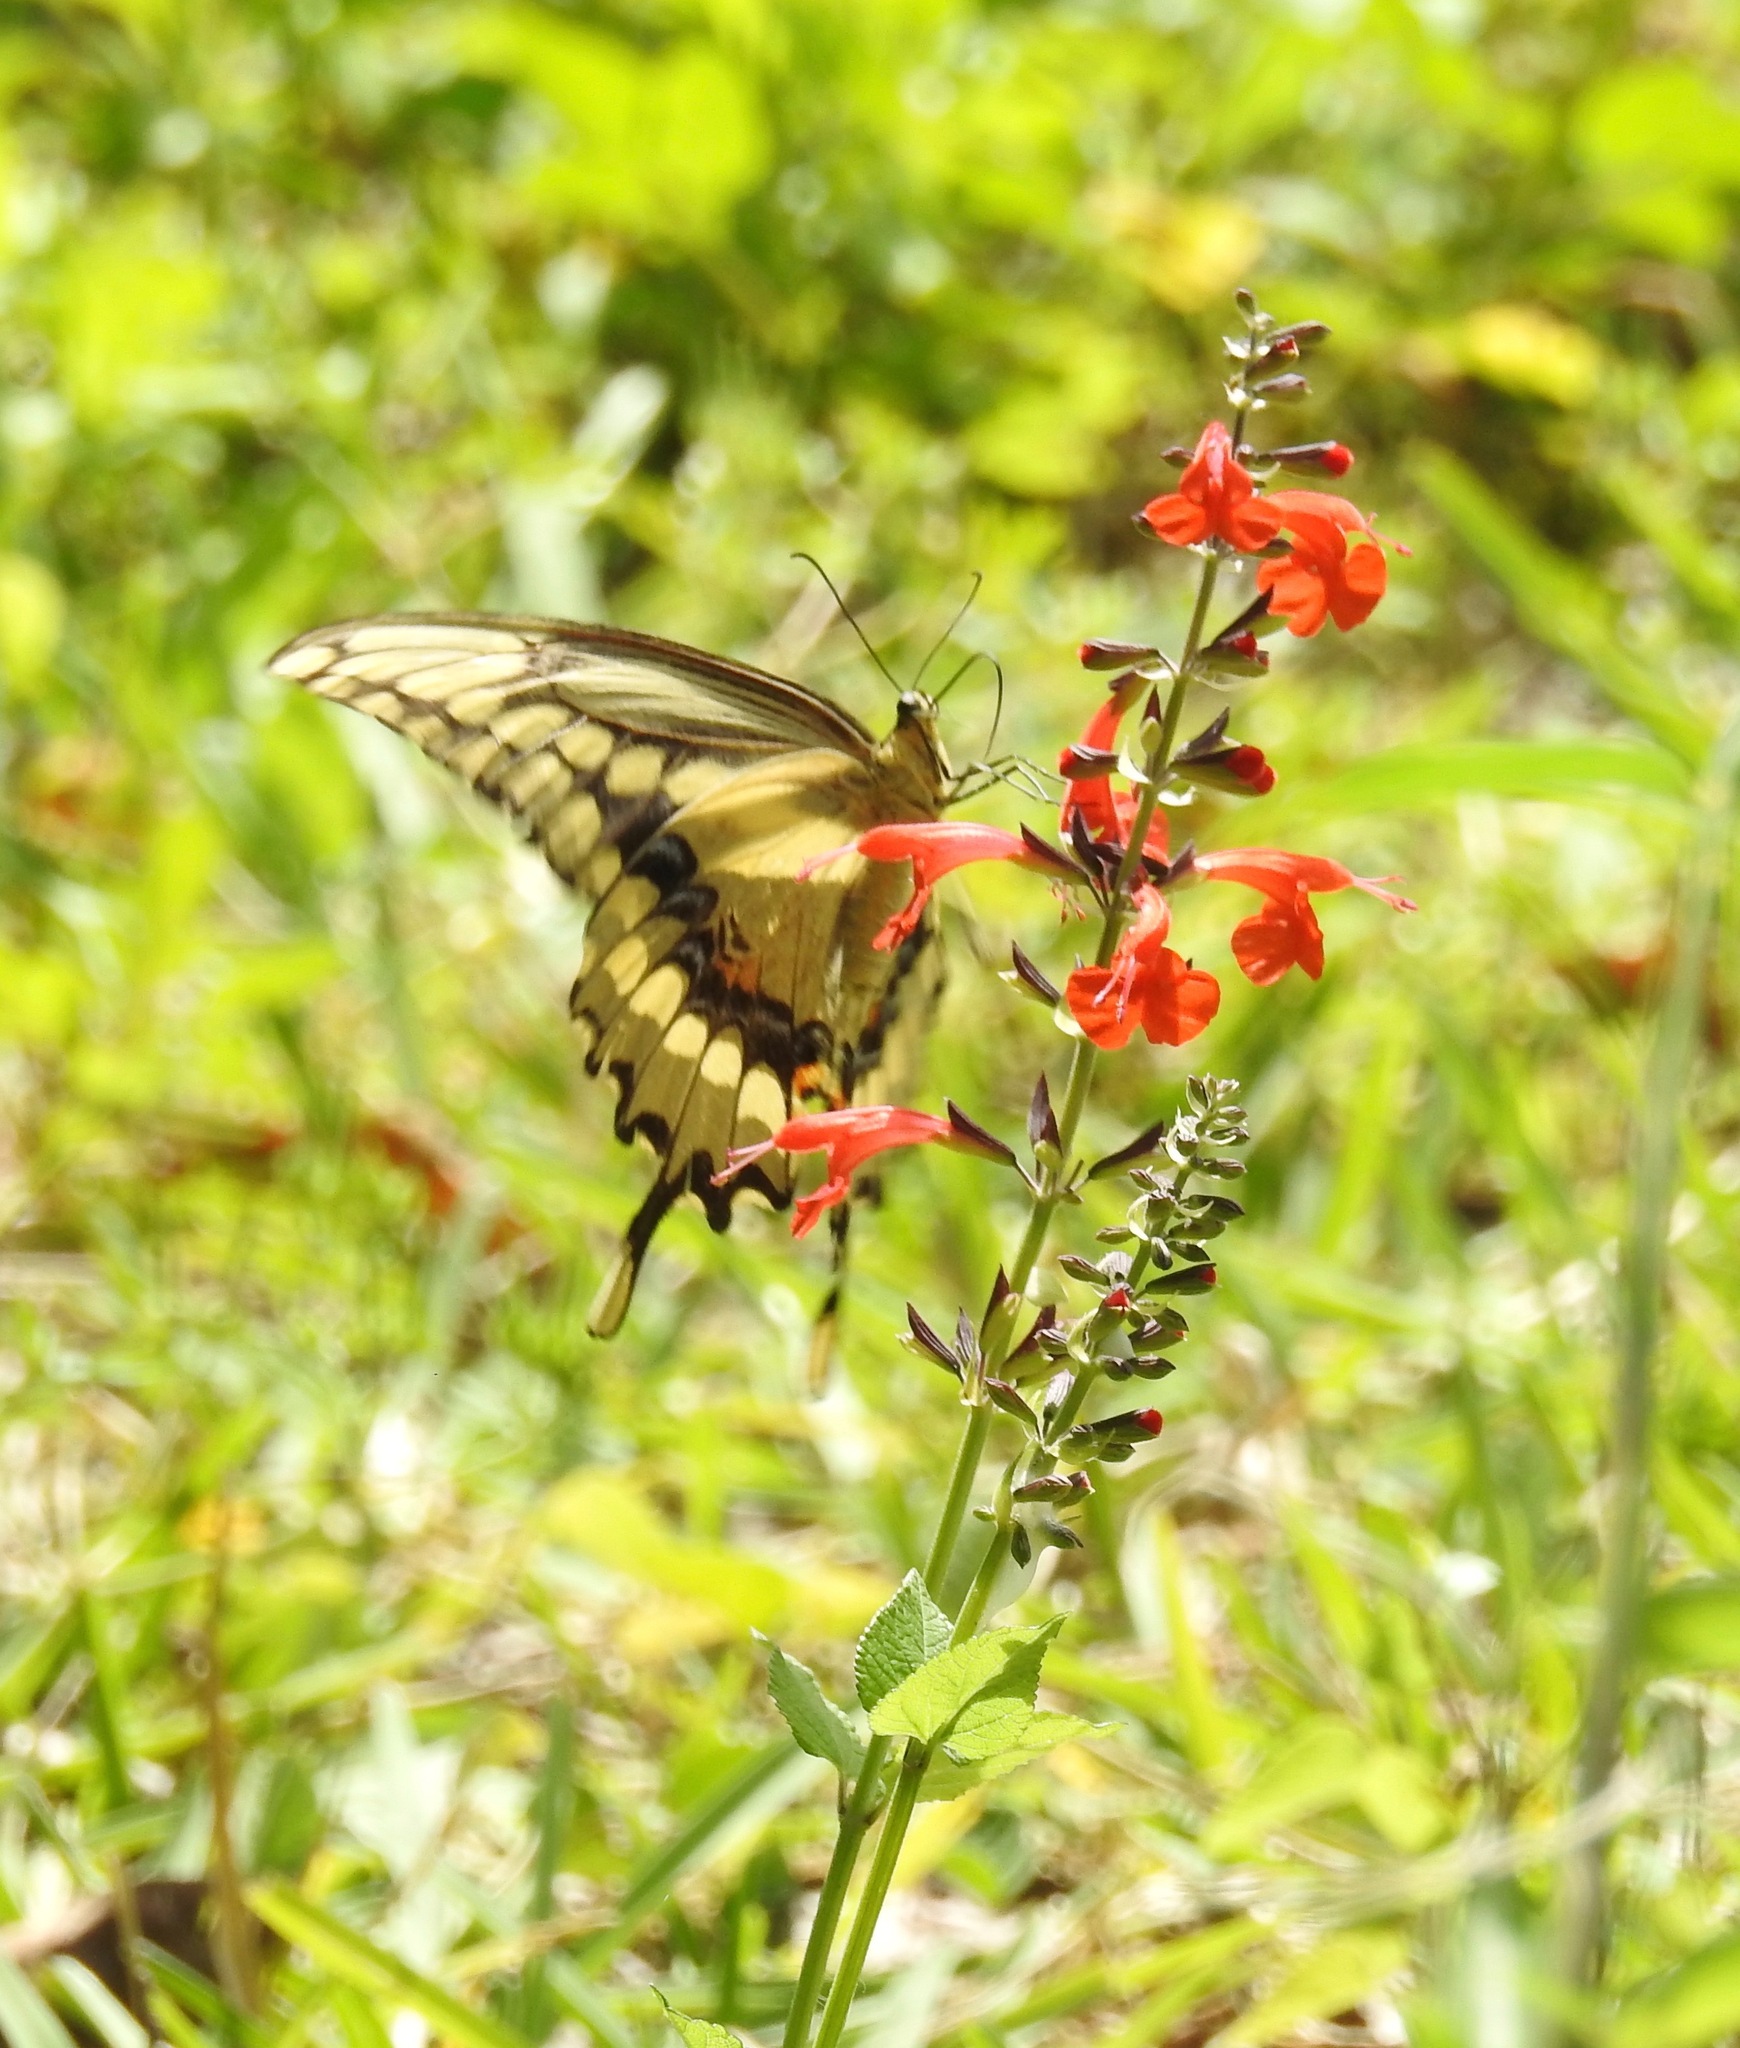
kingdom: Animalia
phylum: Arthropoda
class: Insecta
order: Lepidoptera
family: Papilionidae
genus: Papilio
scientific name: Papilio cresphontes
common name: Giant swallowtail
